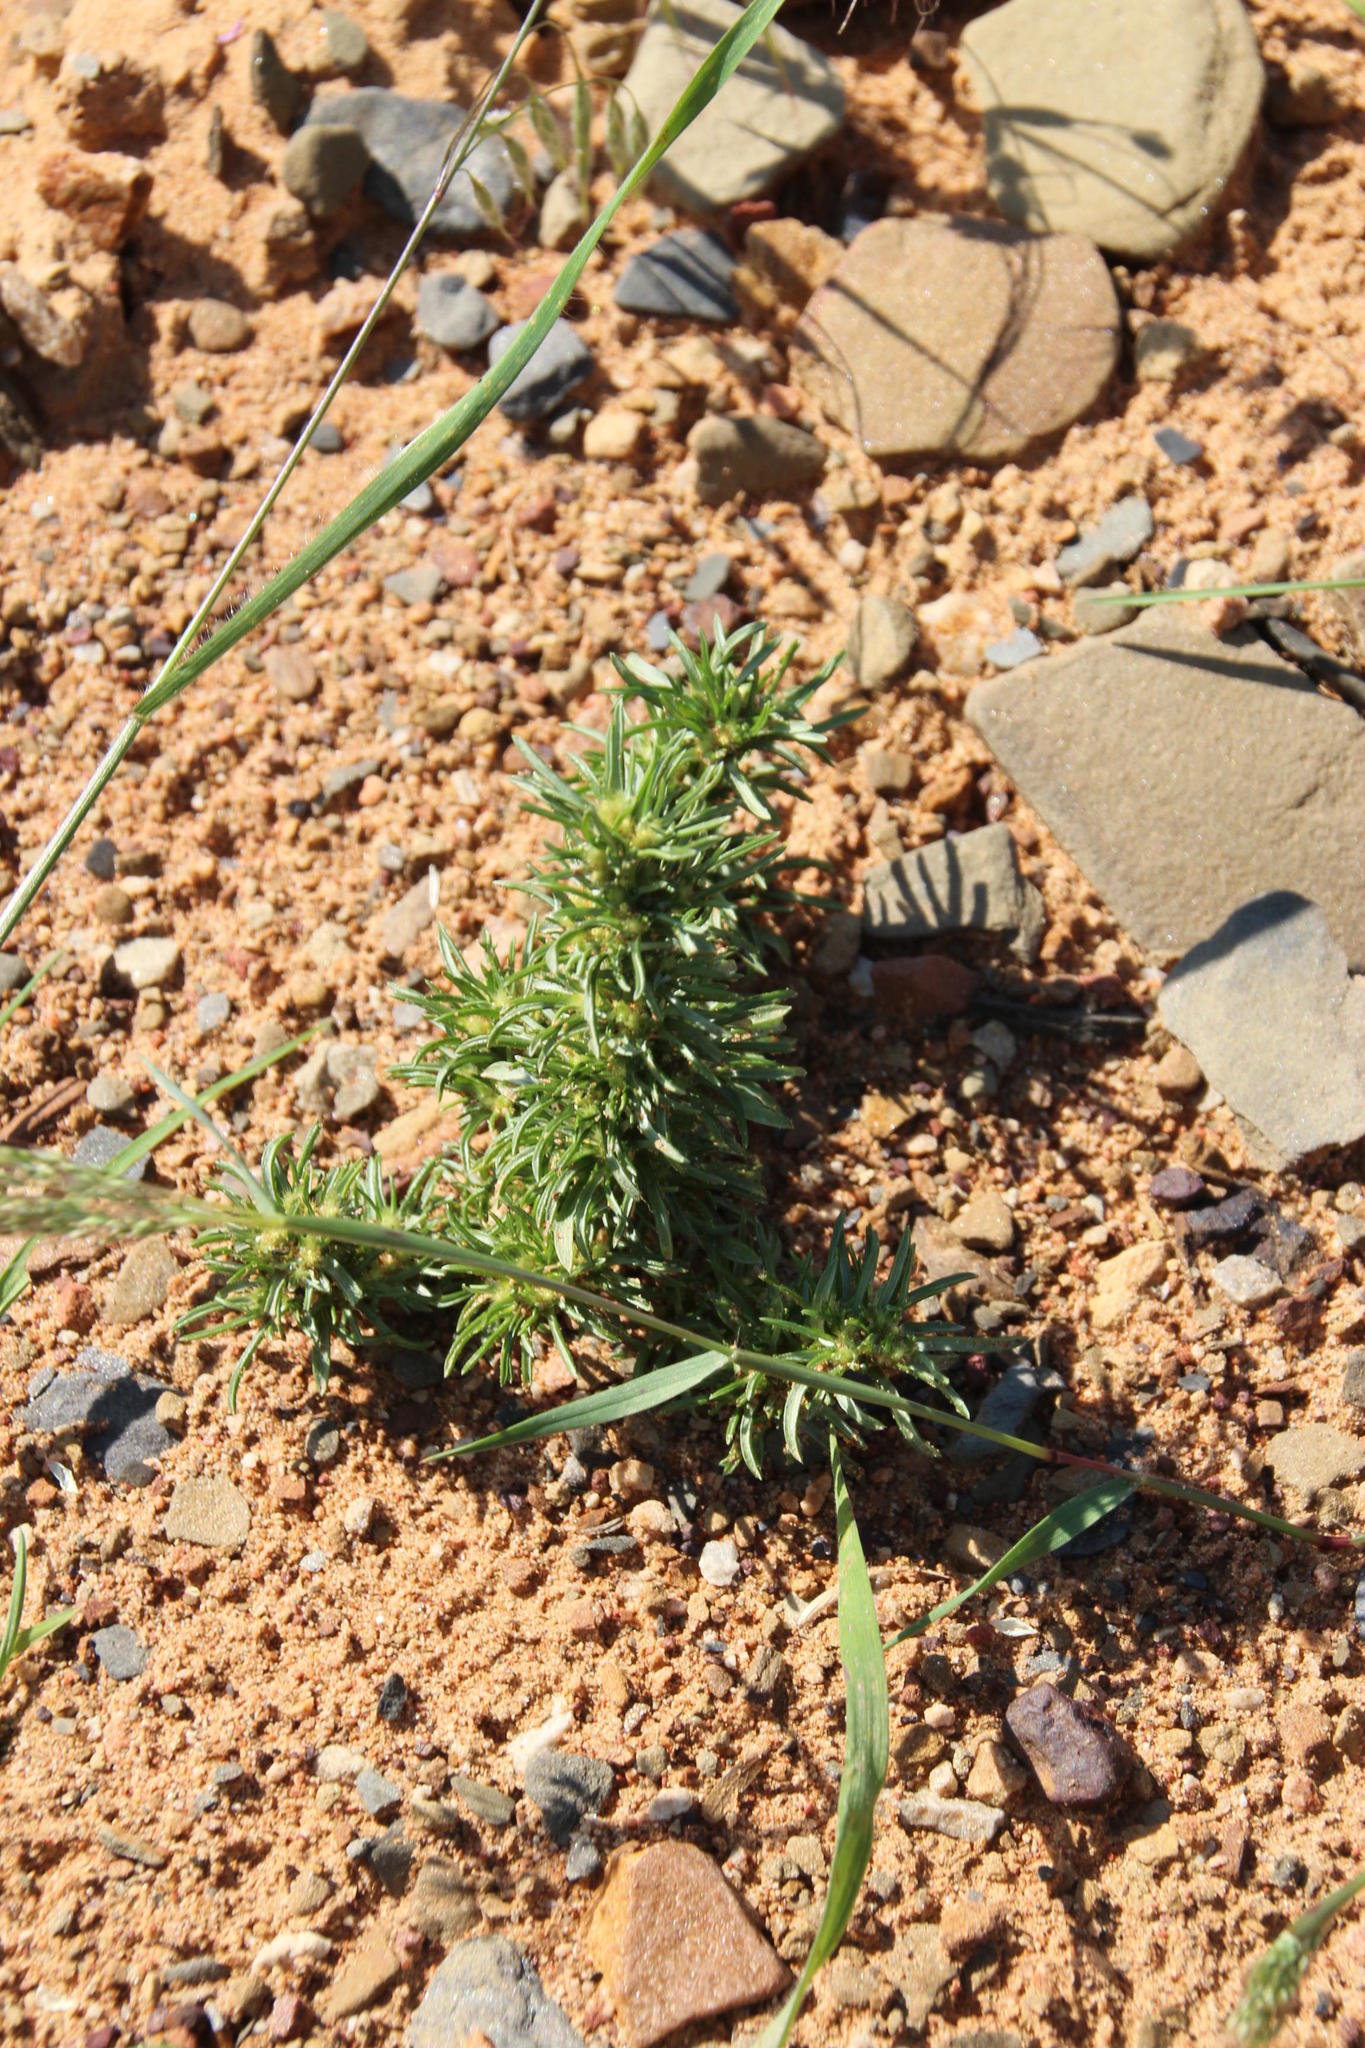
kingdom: Plantae
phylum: Tracheophyta
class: Magnoliopsida
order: Asterales
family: Asteraceae
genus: Ifloga
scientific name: Ifloga glomerata
